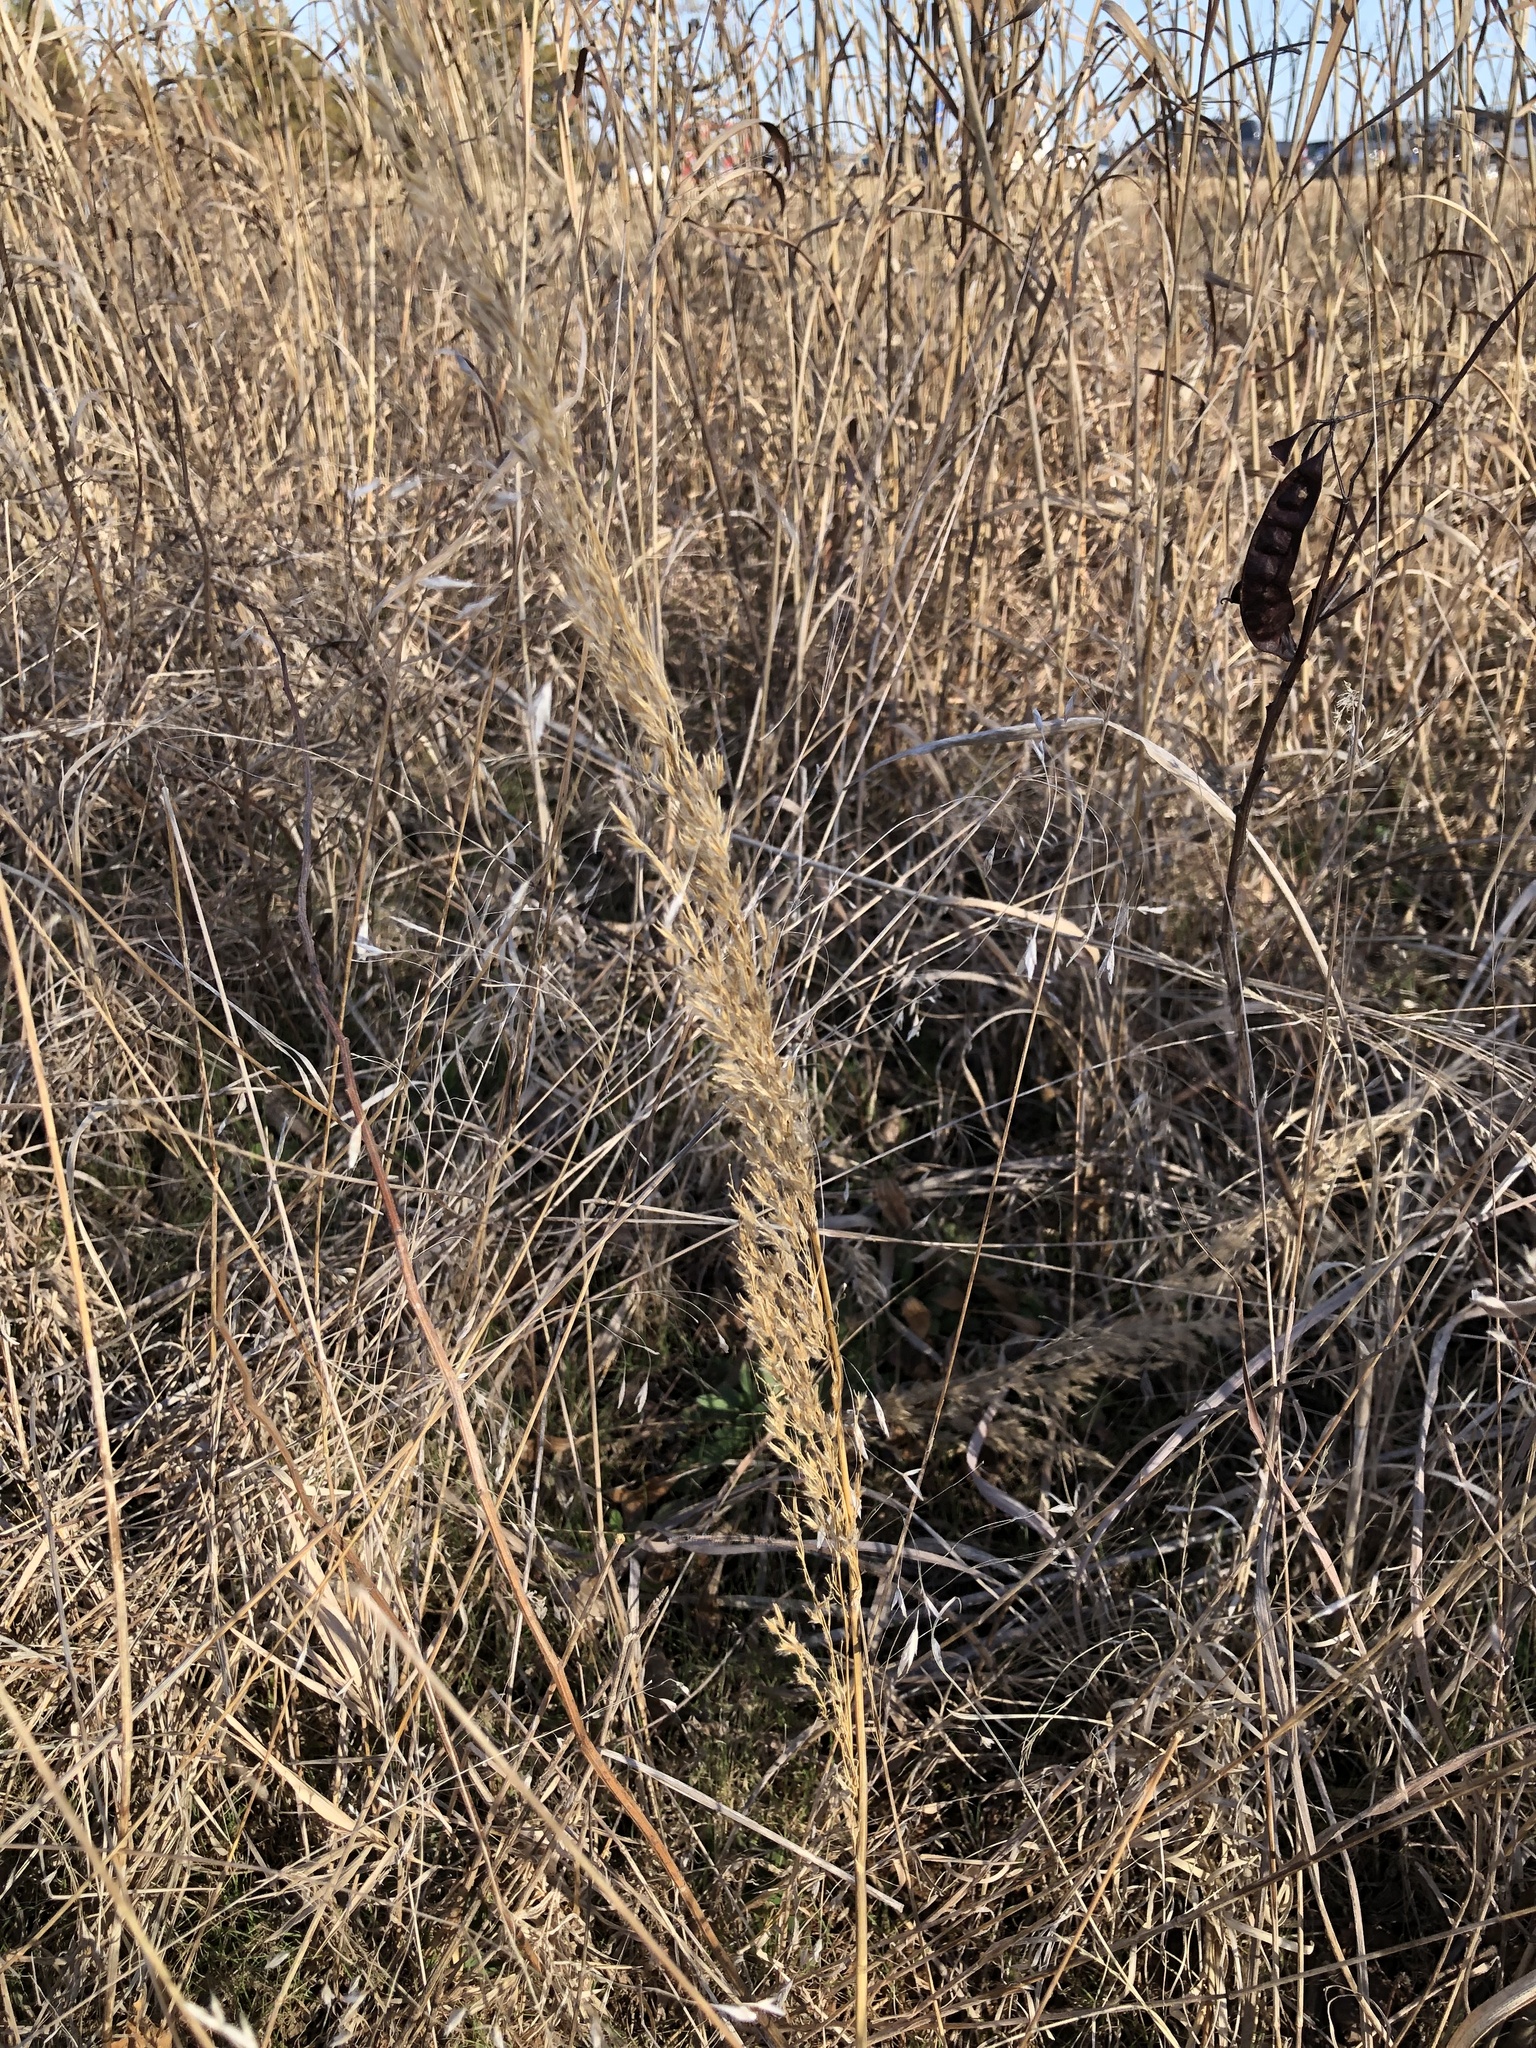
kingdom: Plantae
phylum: Tracheophyta
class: Liliopsida
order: Poales
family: Poaceae
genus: Sorghastrum
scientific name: Sorghastrum nutans
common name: Indian grass
